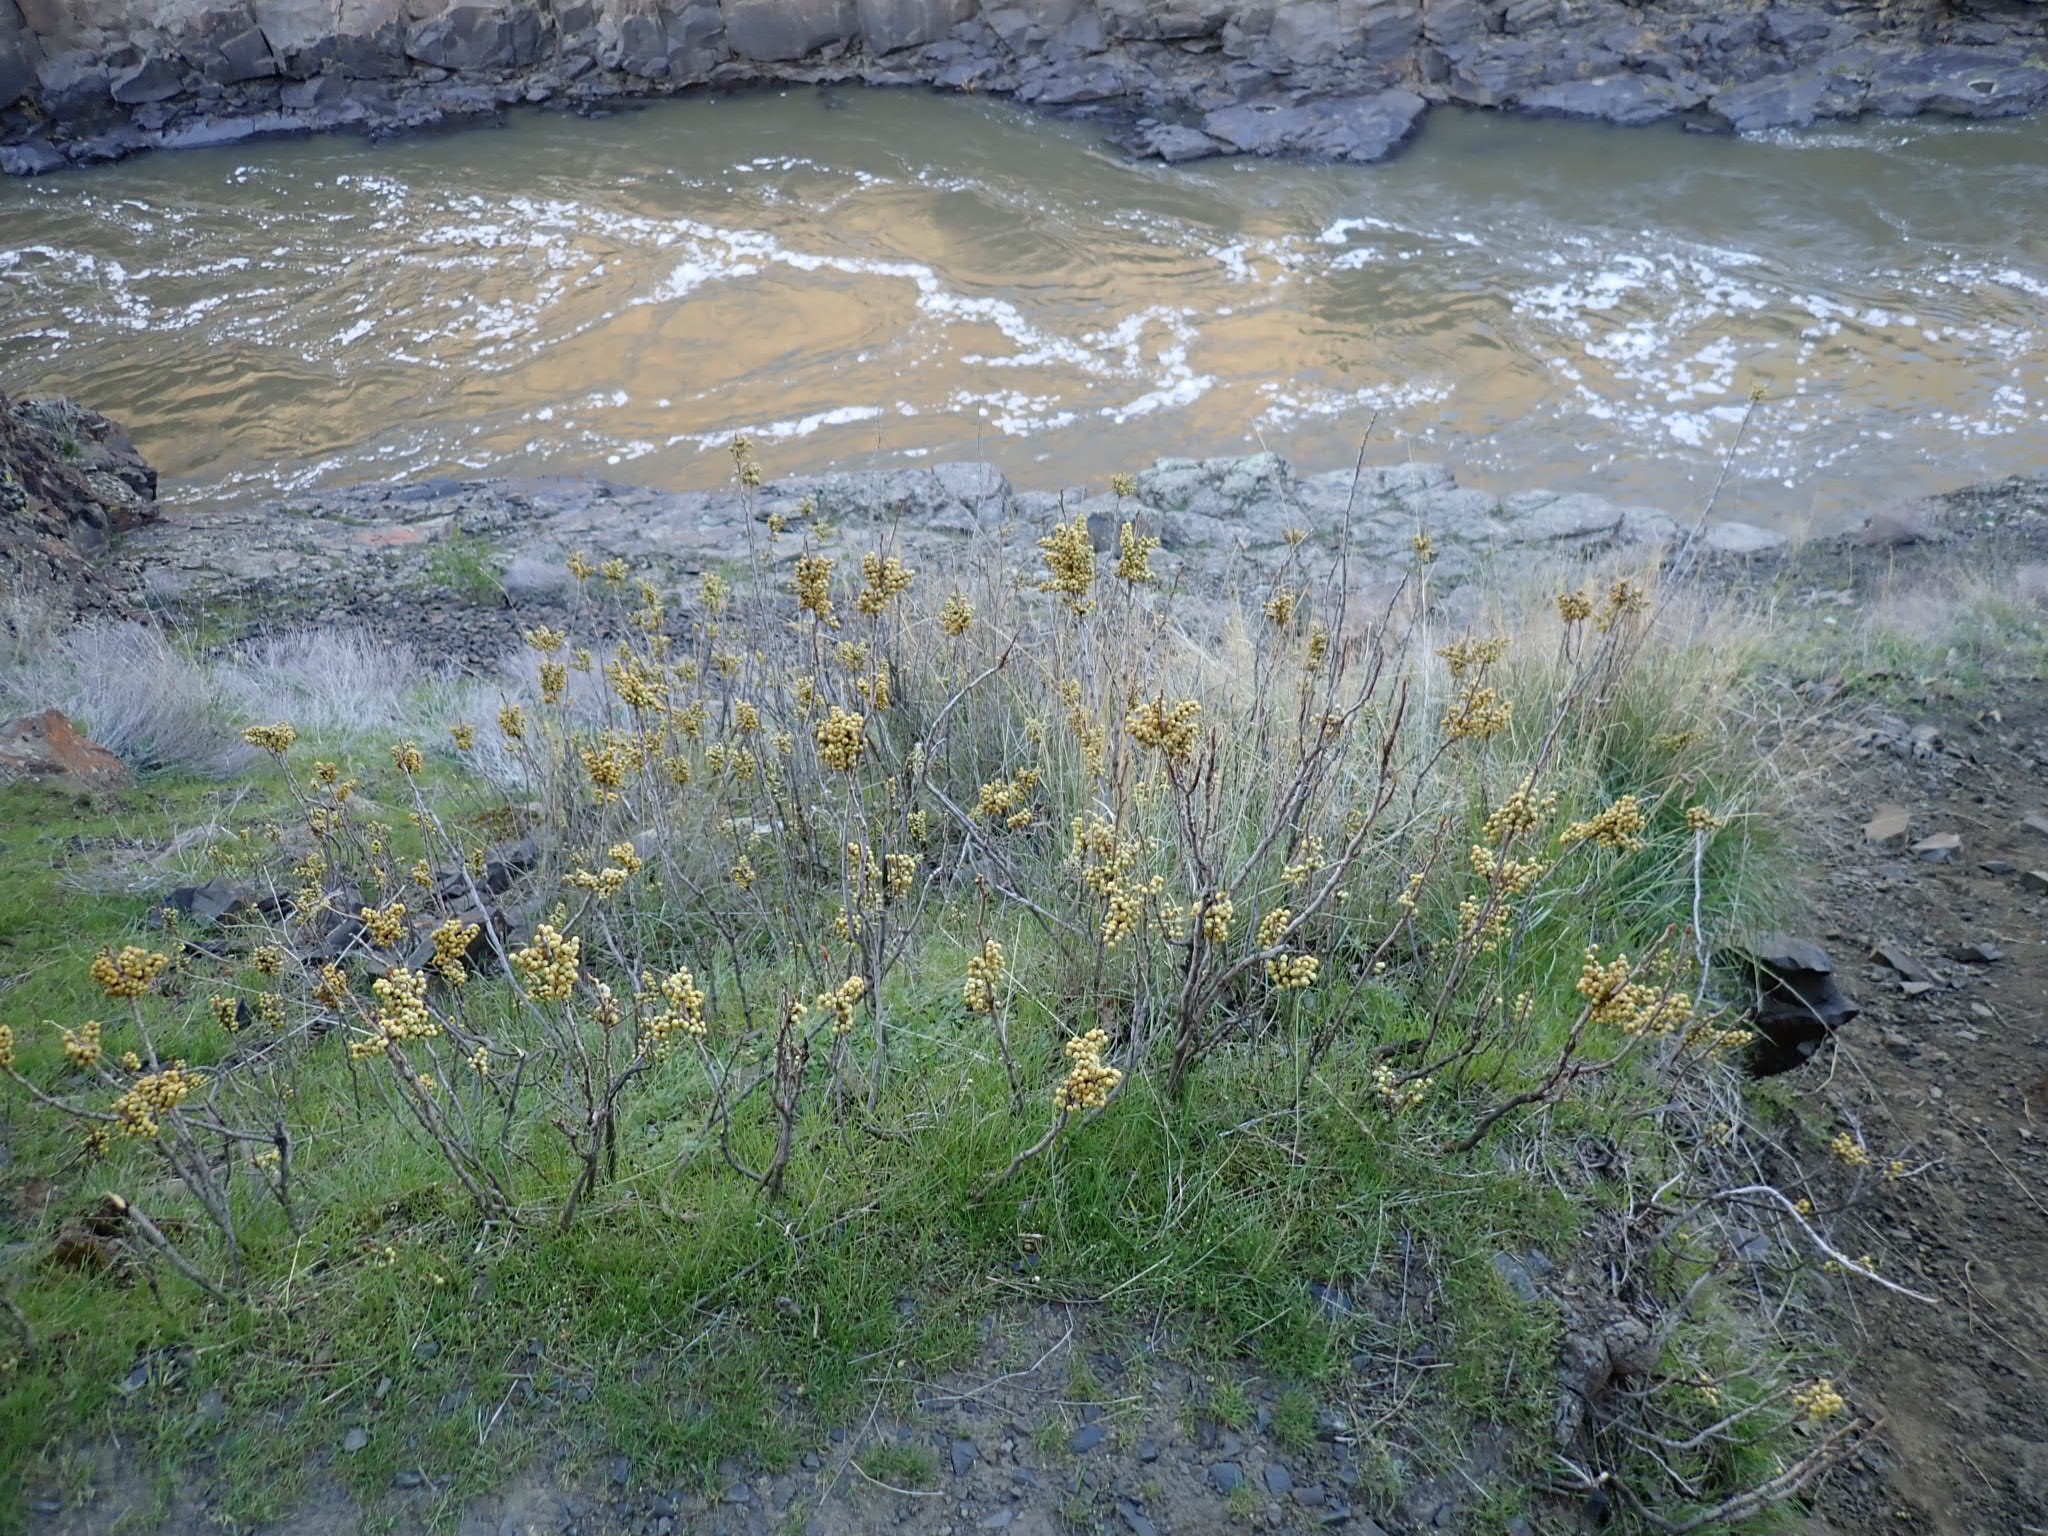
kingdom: Plantae
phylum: Tracheophyta
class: Magnoliopsida
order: Sapindales
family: Anacardiaceae
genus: Toxicodendron
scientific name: Toxicodendron rydbergii
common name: Rydberg's poison-ivy
